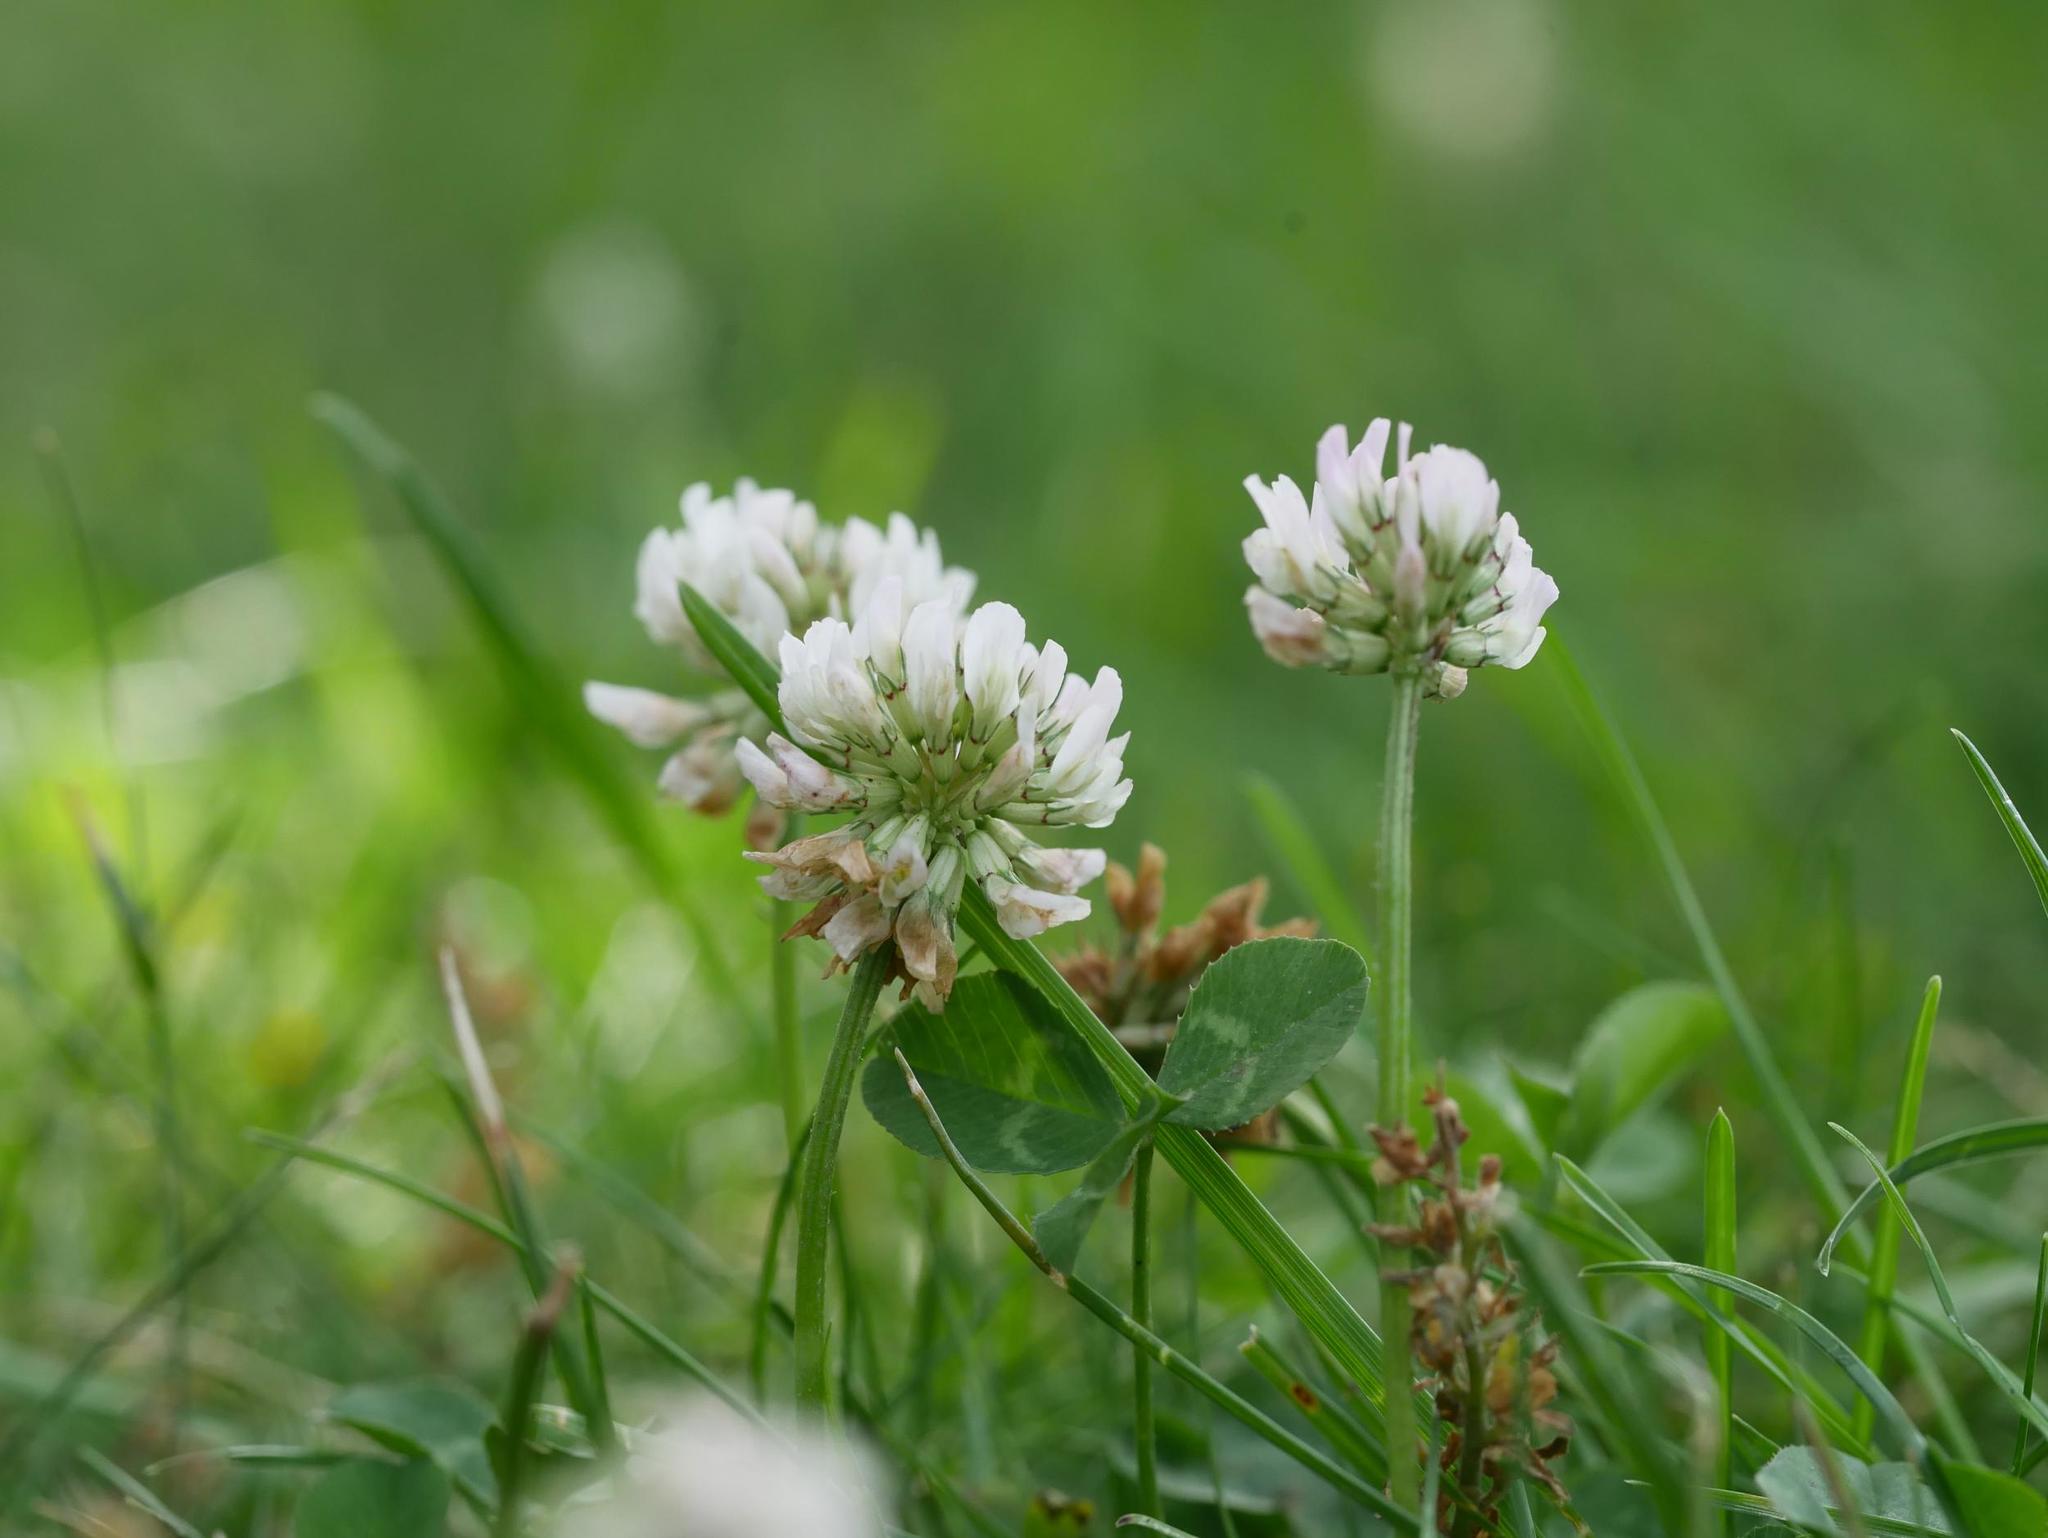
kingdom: Plantae
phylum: Tracheophyta
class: Magnoliopsida
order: Fabales
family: Fabaceae
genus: Trifolium
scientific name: Trifolium repens
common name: White clover
